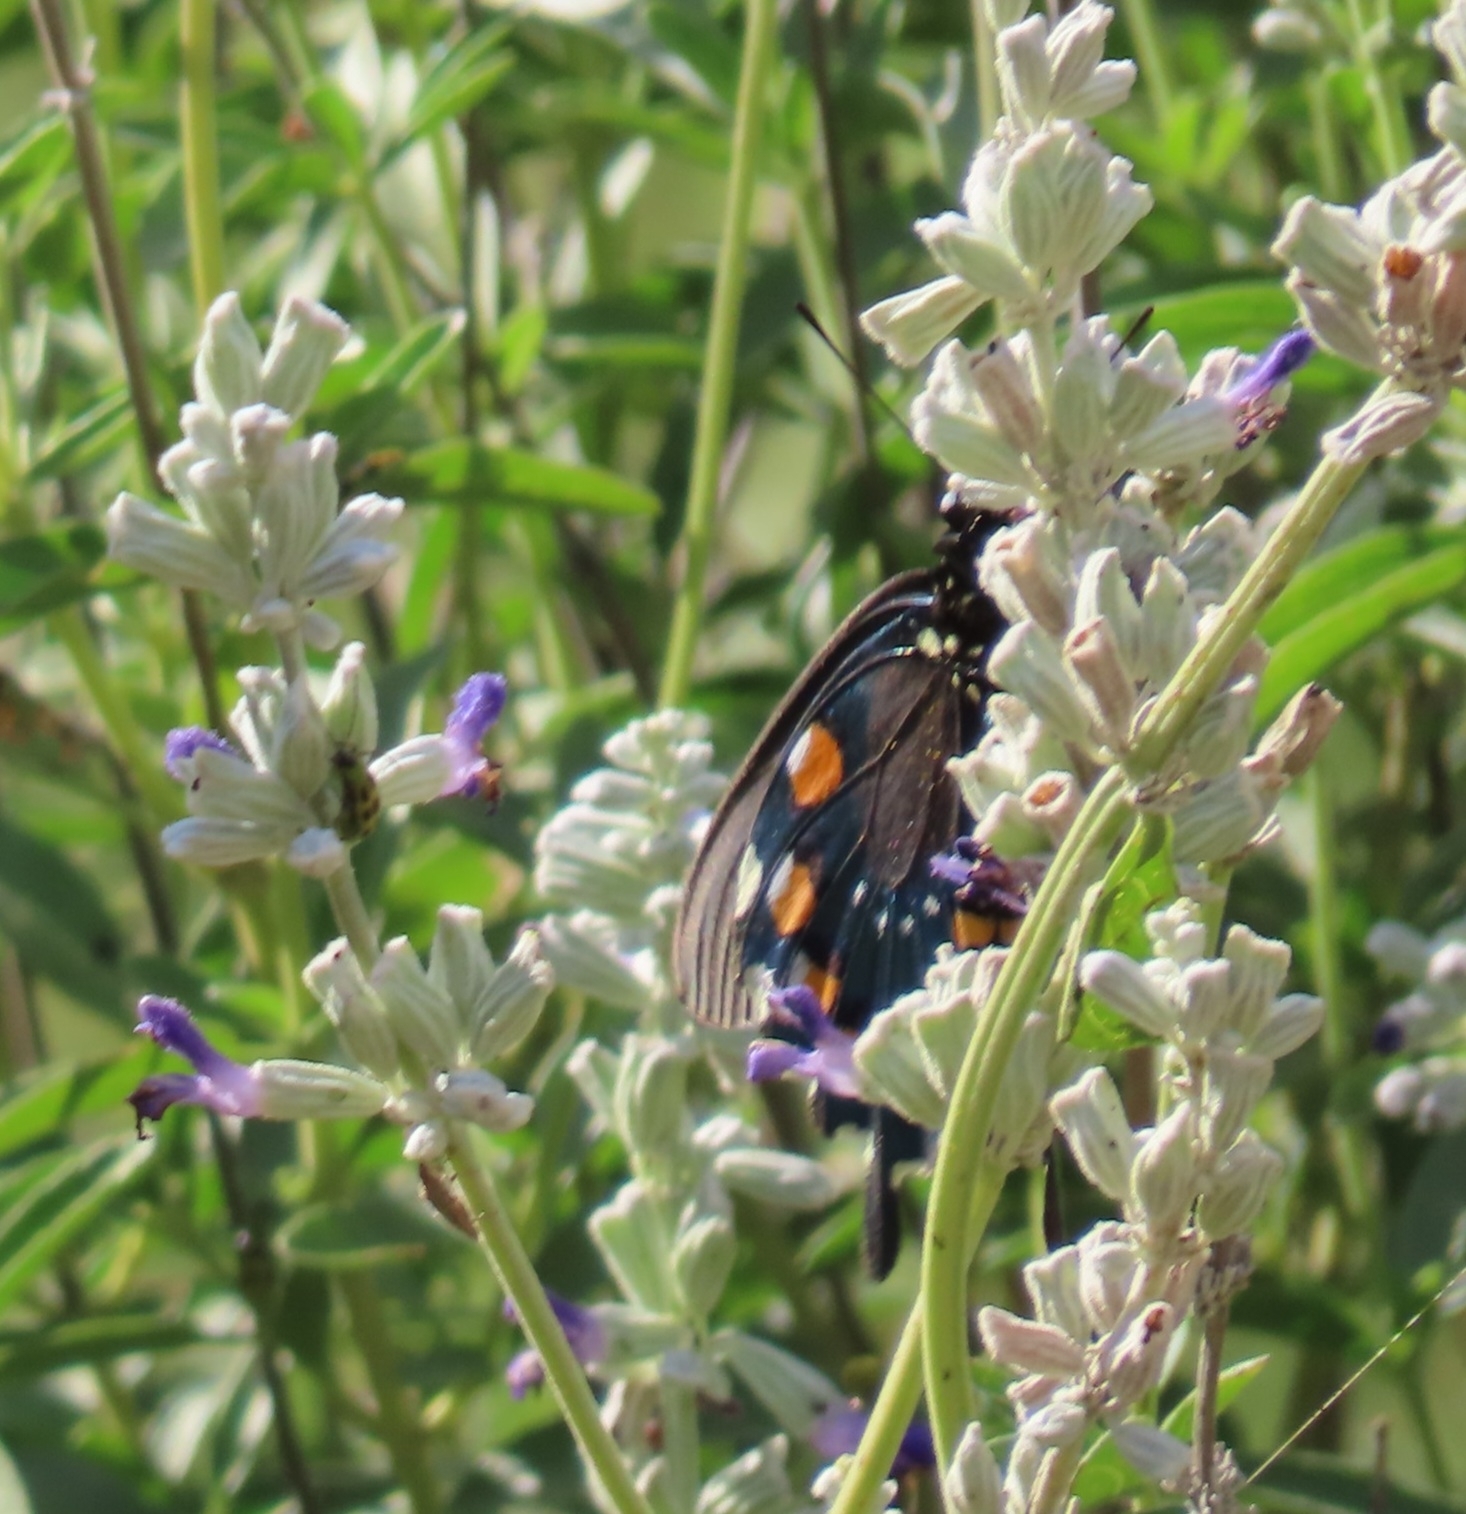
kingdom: Animalia
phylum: Arthropoda
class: Insecta
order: Lepidoptera
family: Papilionidae
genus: Battus
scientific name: Battus philenor
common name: Pipevine swallowtail
